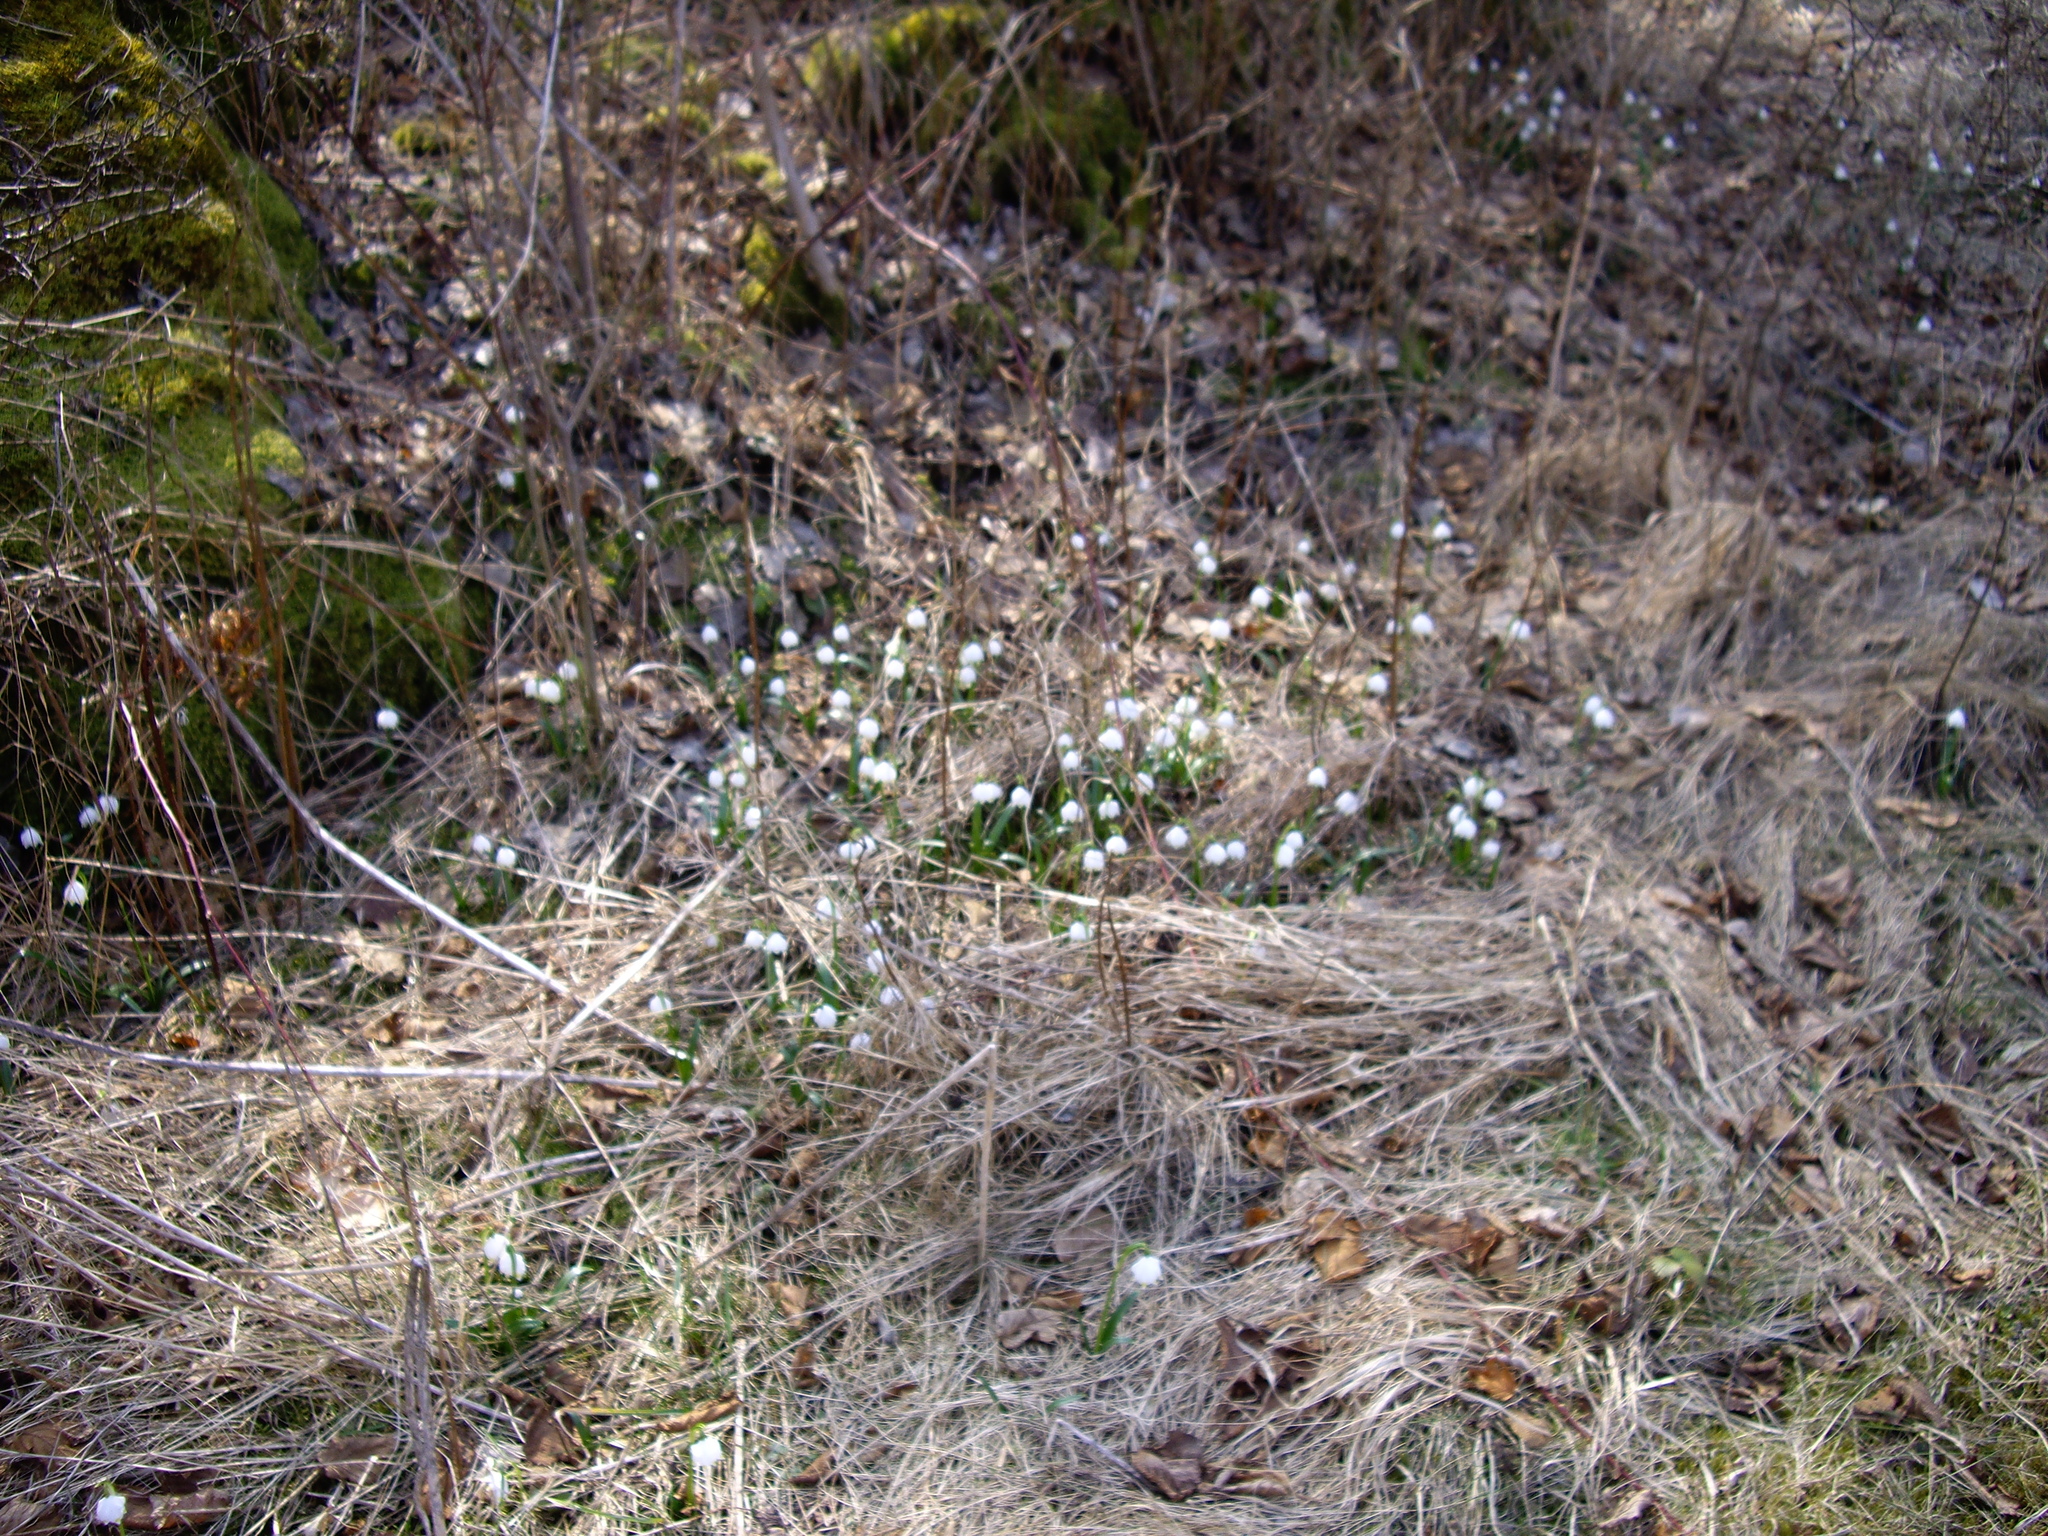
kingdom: Plantae
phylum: Tracheophyta
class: Liliopsida
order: Asparagales
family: Amaryllidaceae
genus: Leucojum
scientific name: Leucojum vernum
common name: Spring snowflake
